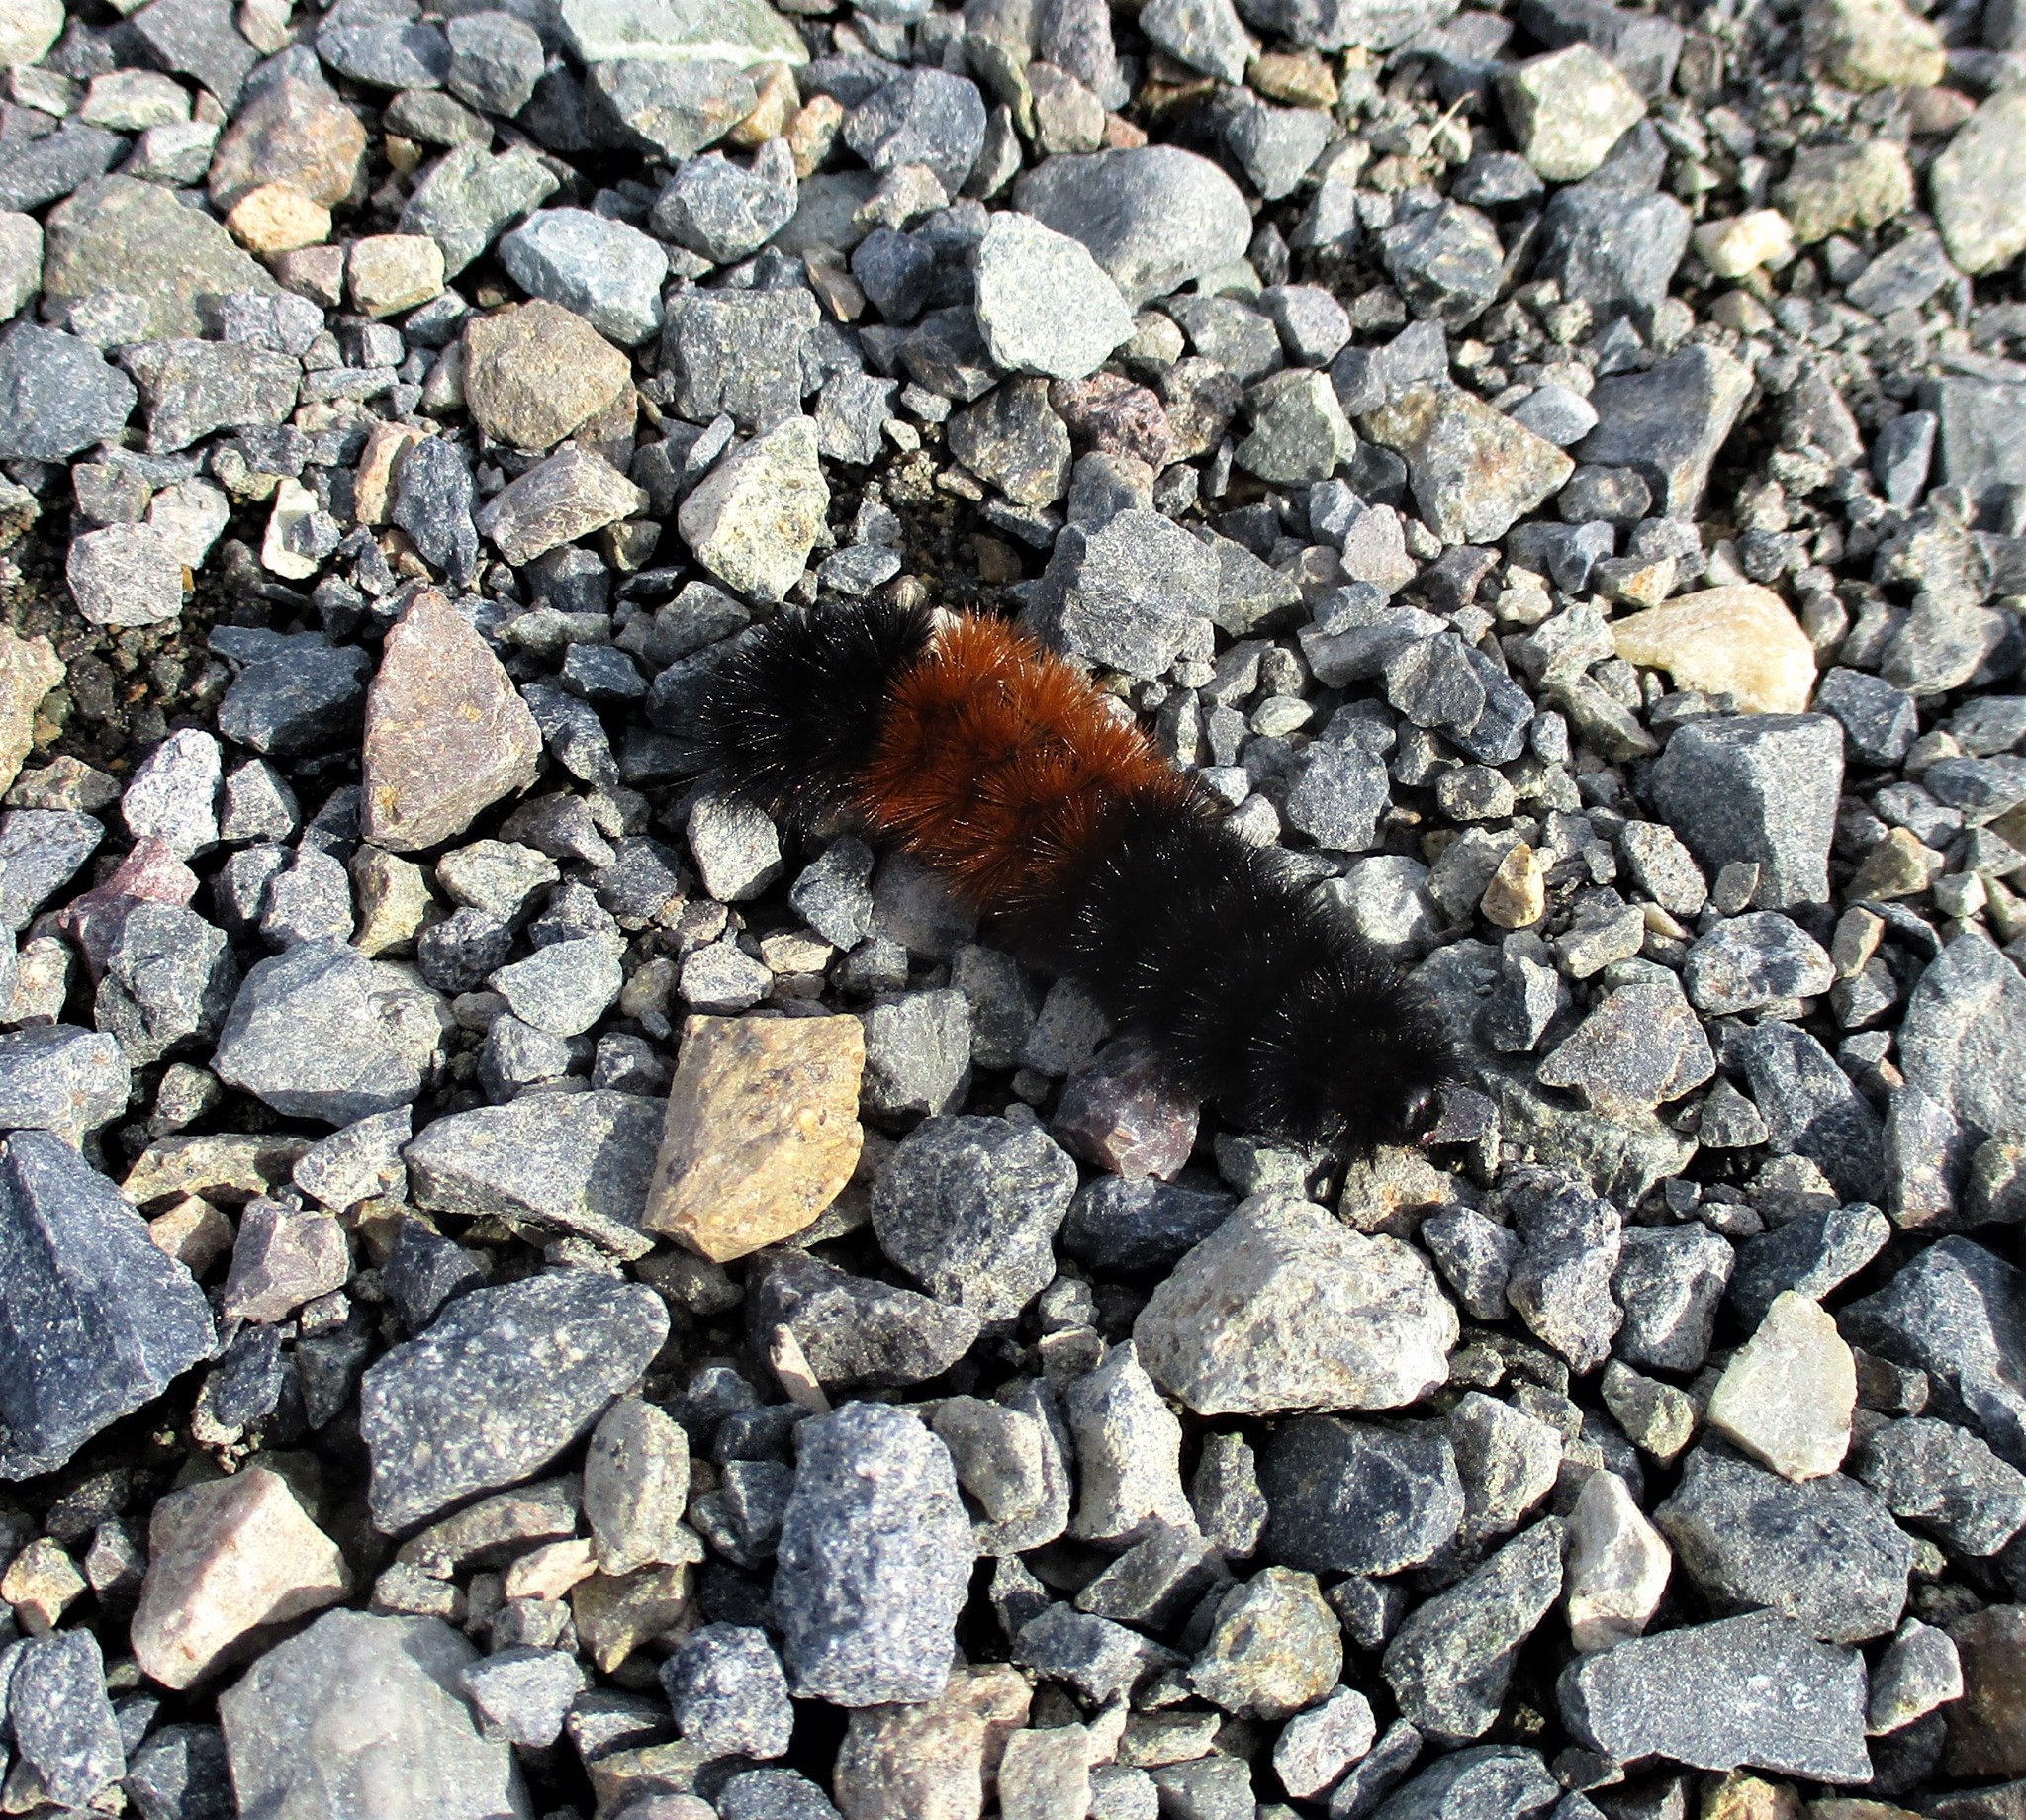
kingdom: Animalia
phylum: Arthropoda
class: Insecta
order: Lepidoptera
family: Erebidae
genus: Pyrrharctia
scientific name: Pyrrharctia isabella
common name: Isabella tiger moth
